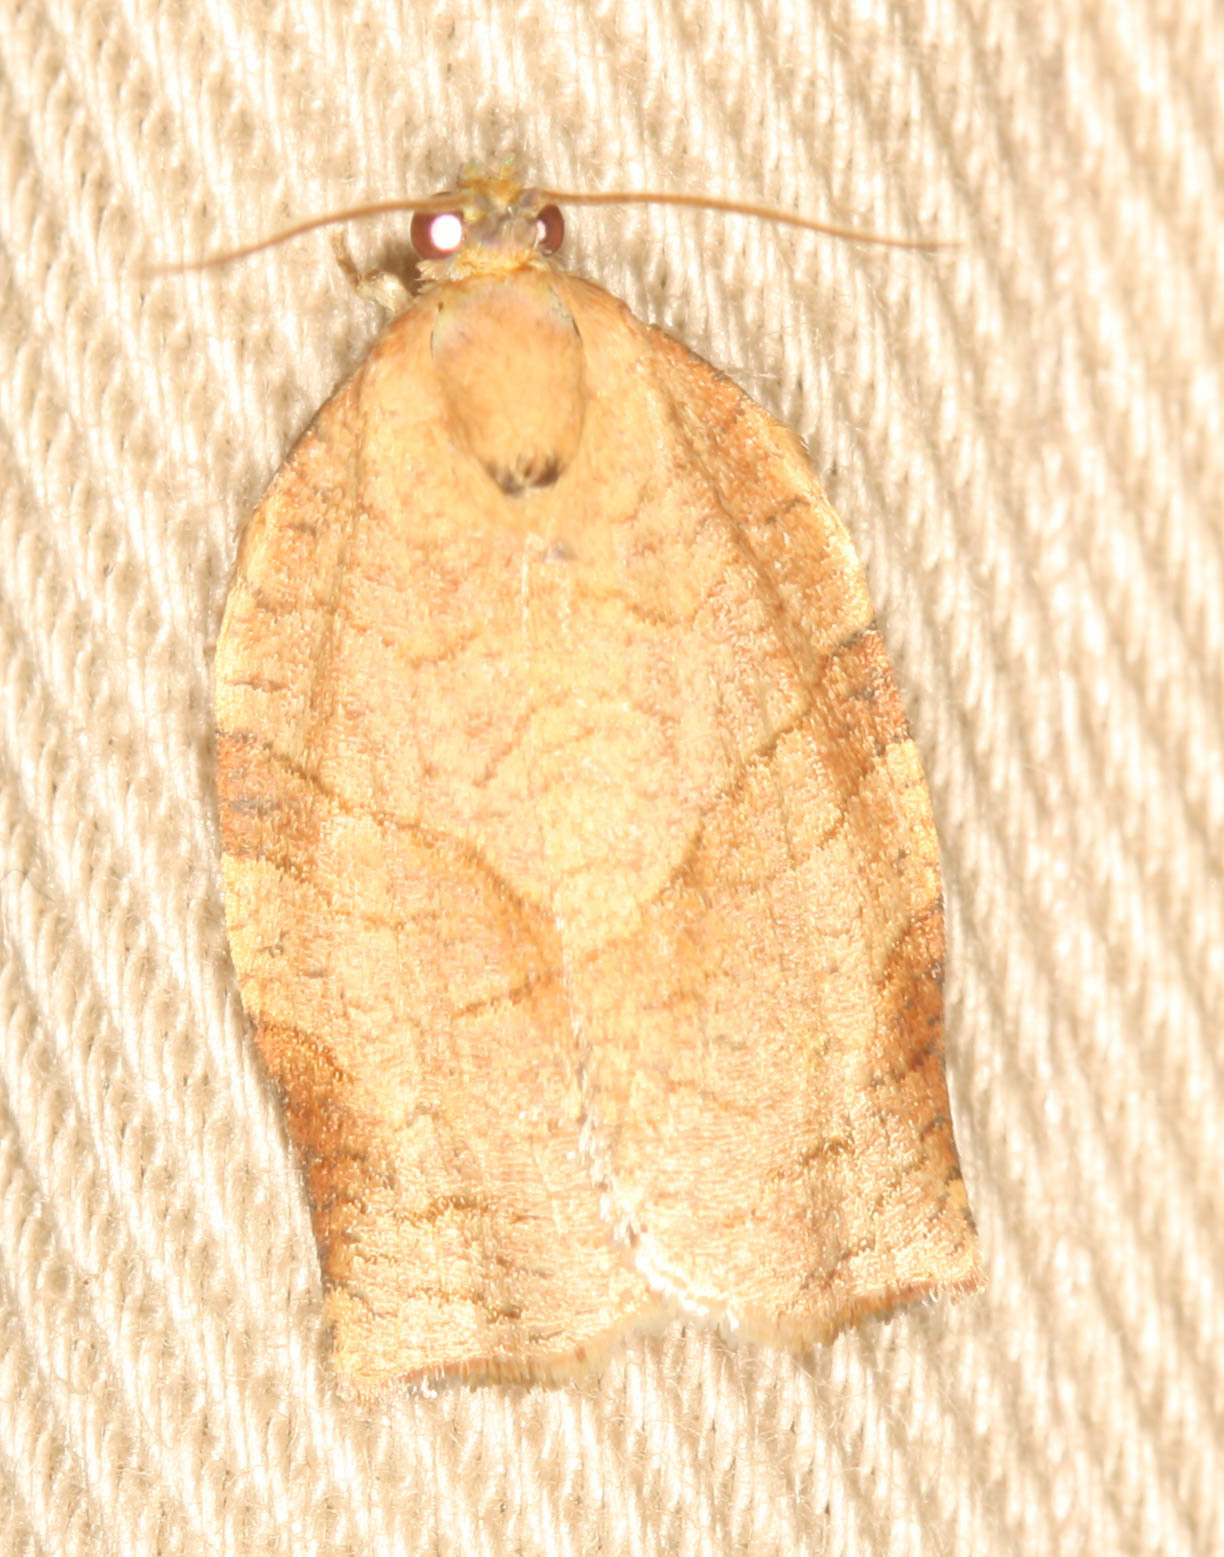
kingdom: Animalia
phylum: Arthropoda
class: Insecta
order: Lepidoptera
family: Tortricidae
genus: Choristoneura
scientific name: Choristoneura rosaceana
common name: Oblique-banded leafroller moth
